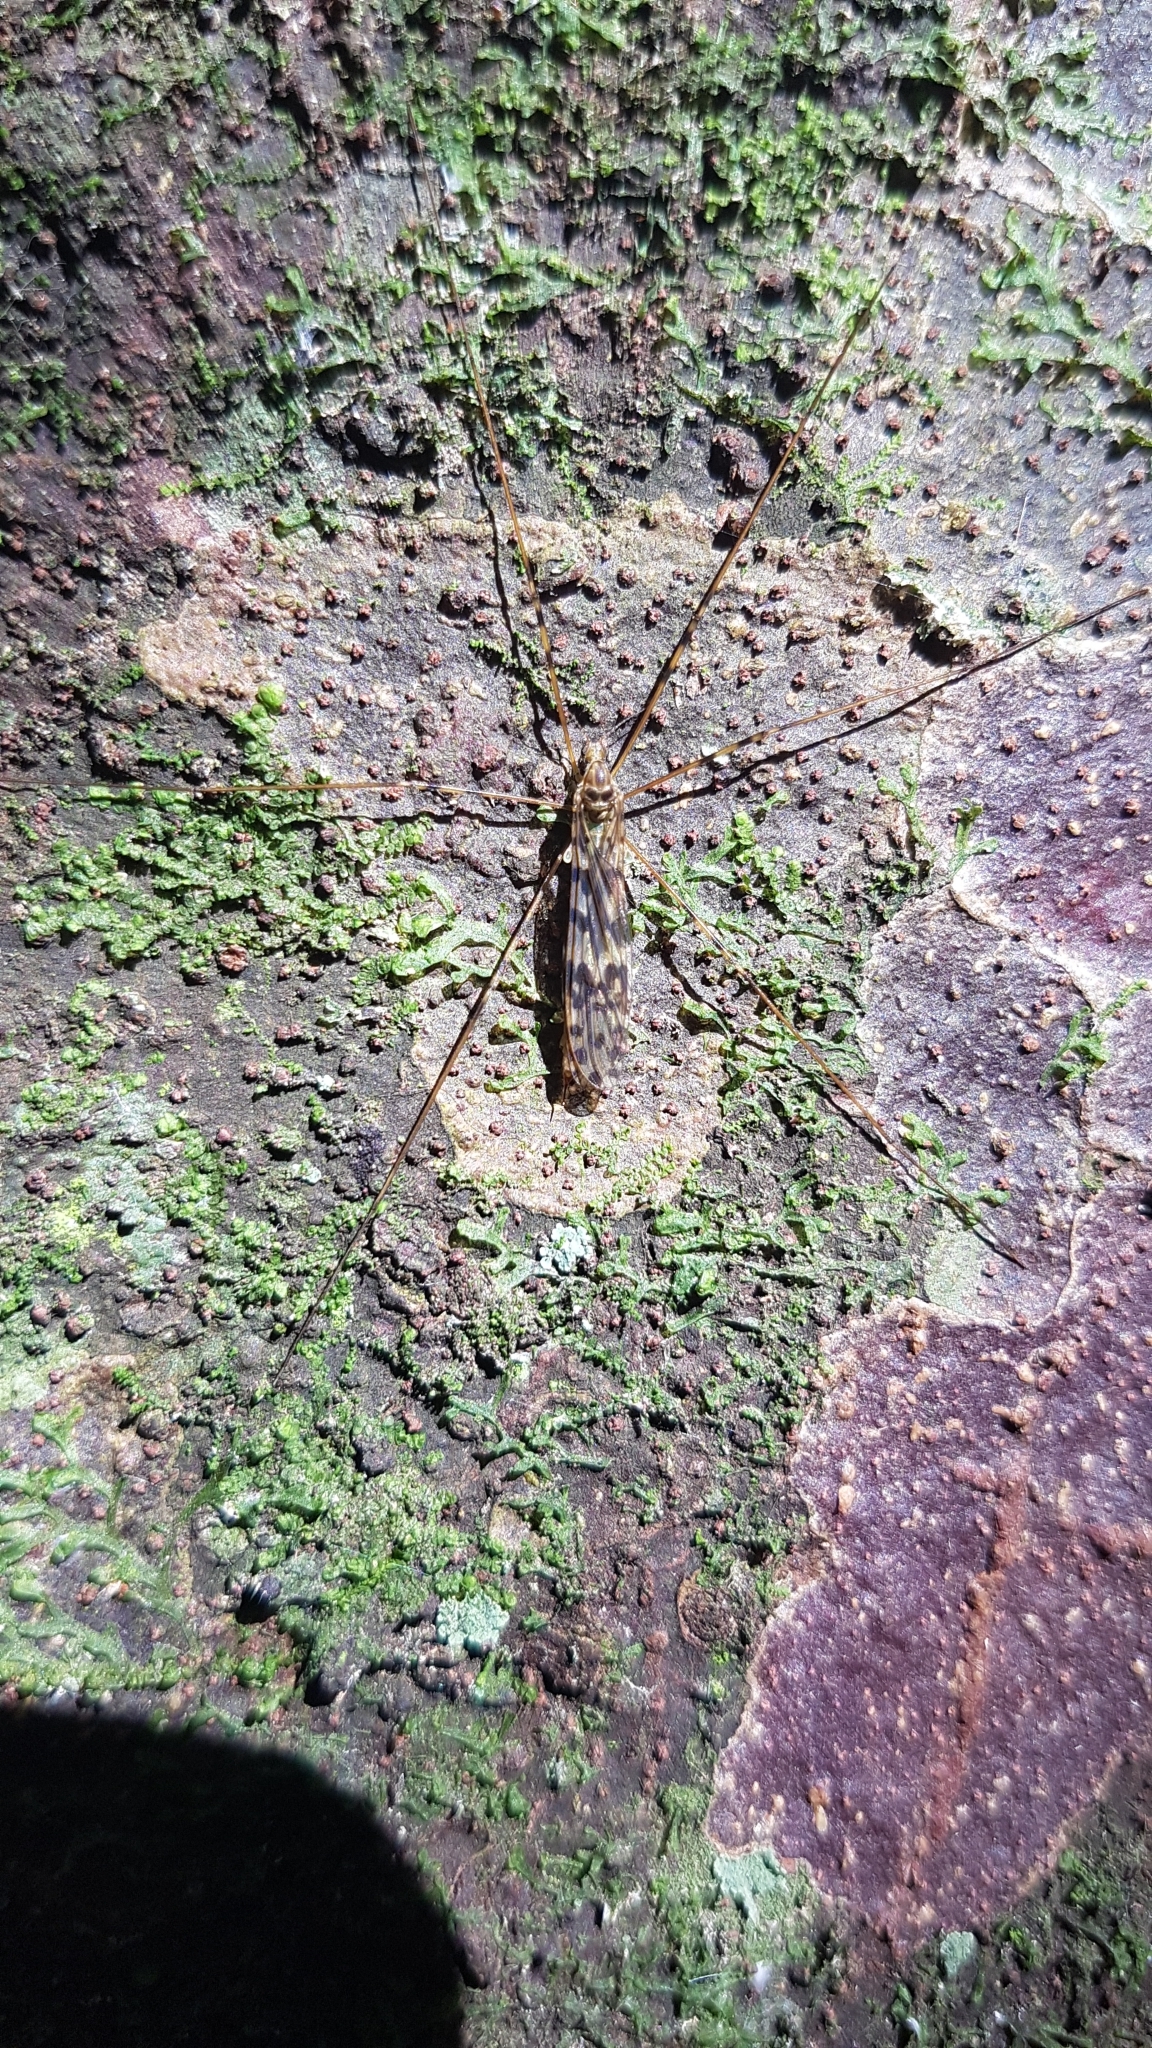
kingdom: Animalia
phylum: Arthropoda
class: Insecta
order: Diptera
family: Limoniidae
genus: Austrolimnophila
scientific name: Austrolimnophila wilfredlongi
